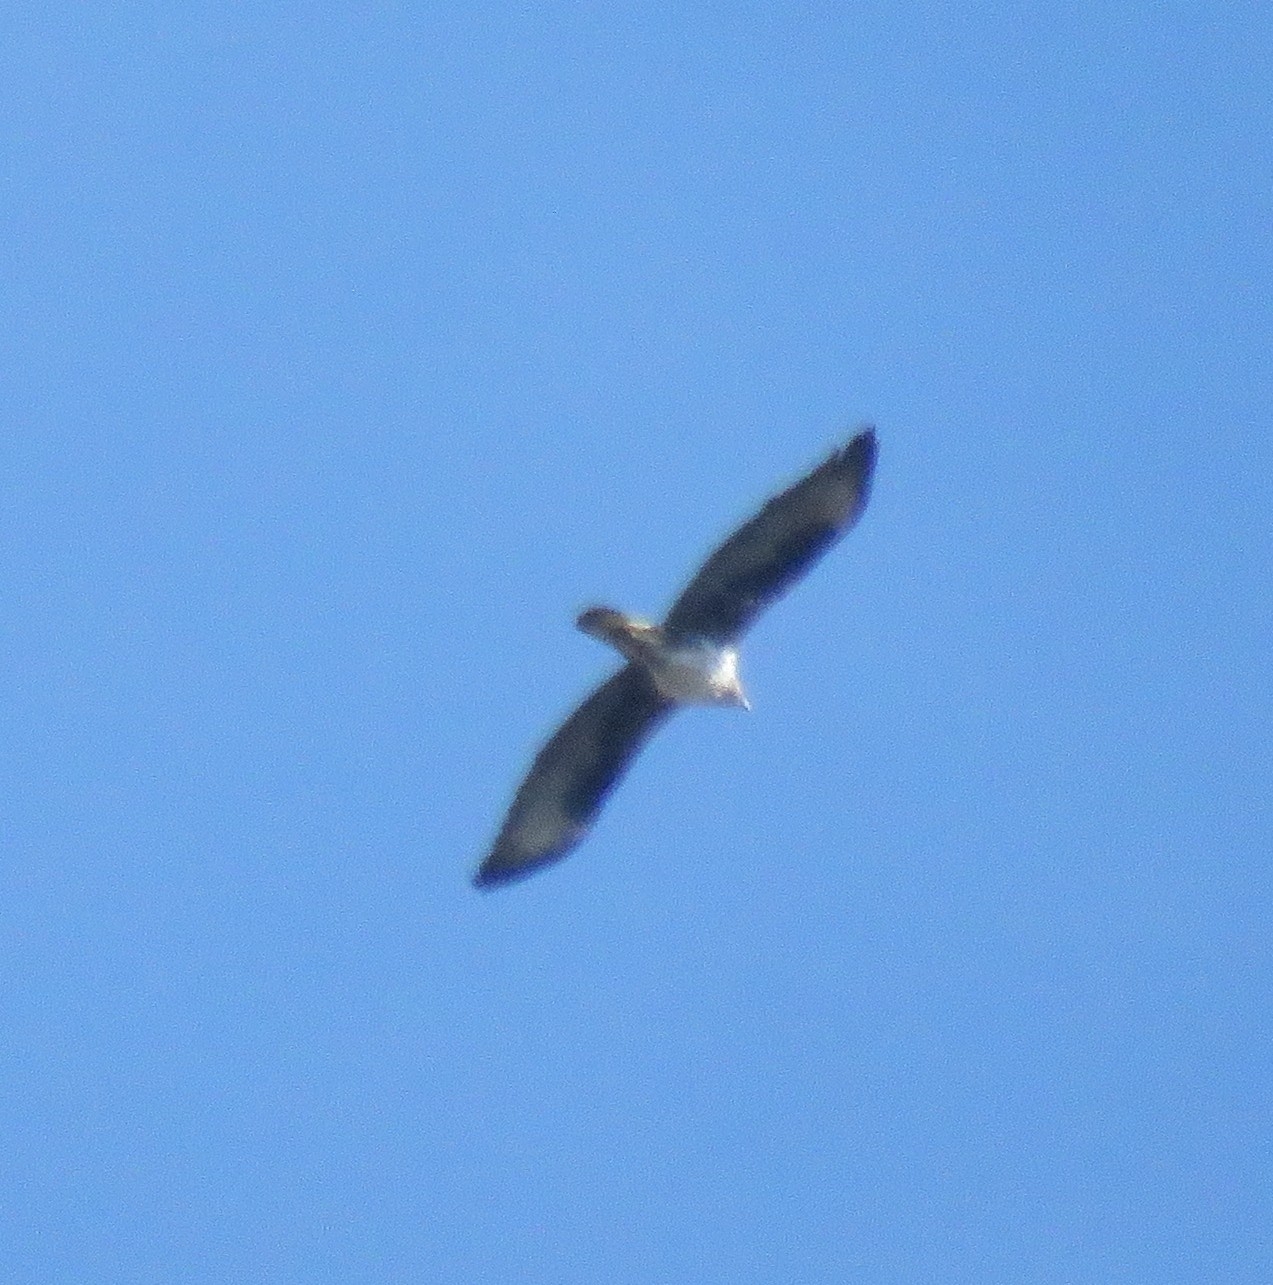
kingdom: Animalia
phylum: Chordata
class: Aves
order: Accipitriformes
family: Accipitridae
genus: Aquila
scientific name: Aquila fasciata
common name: Bonelli's eagle
